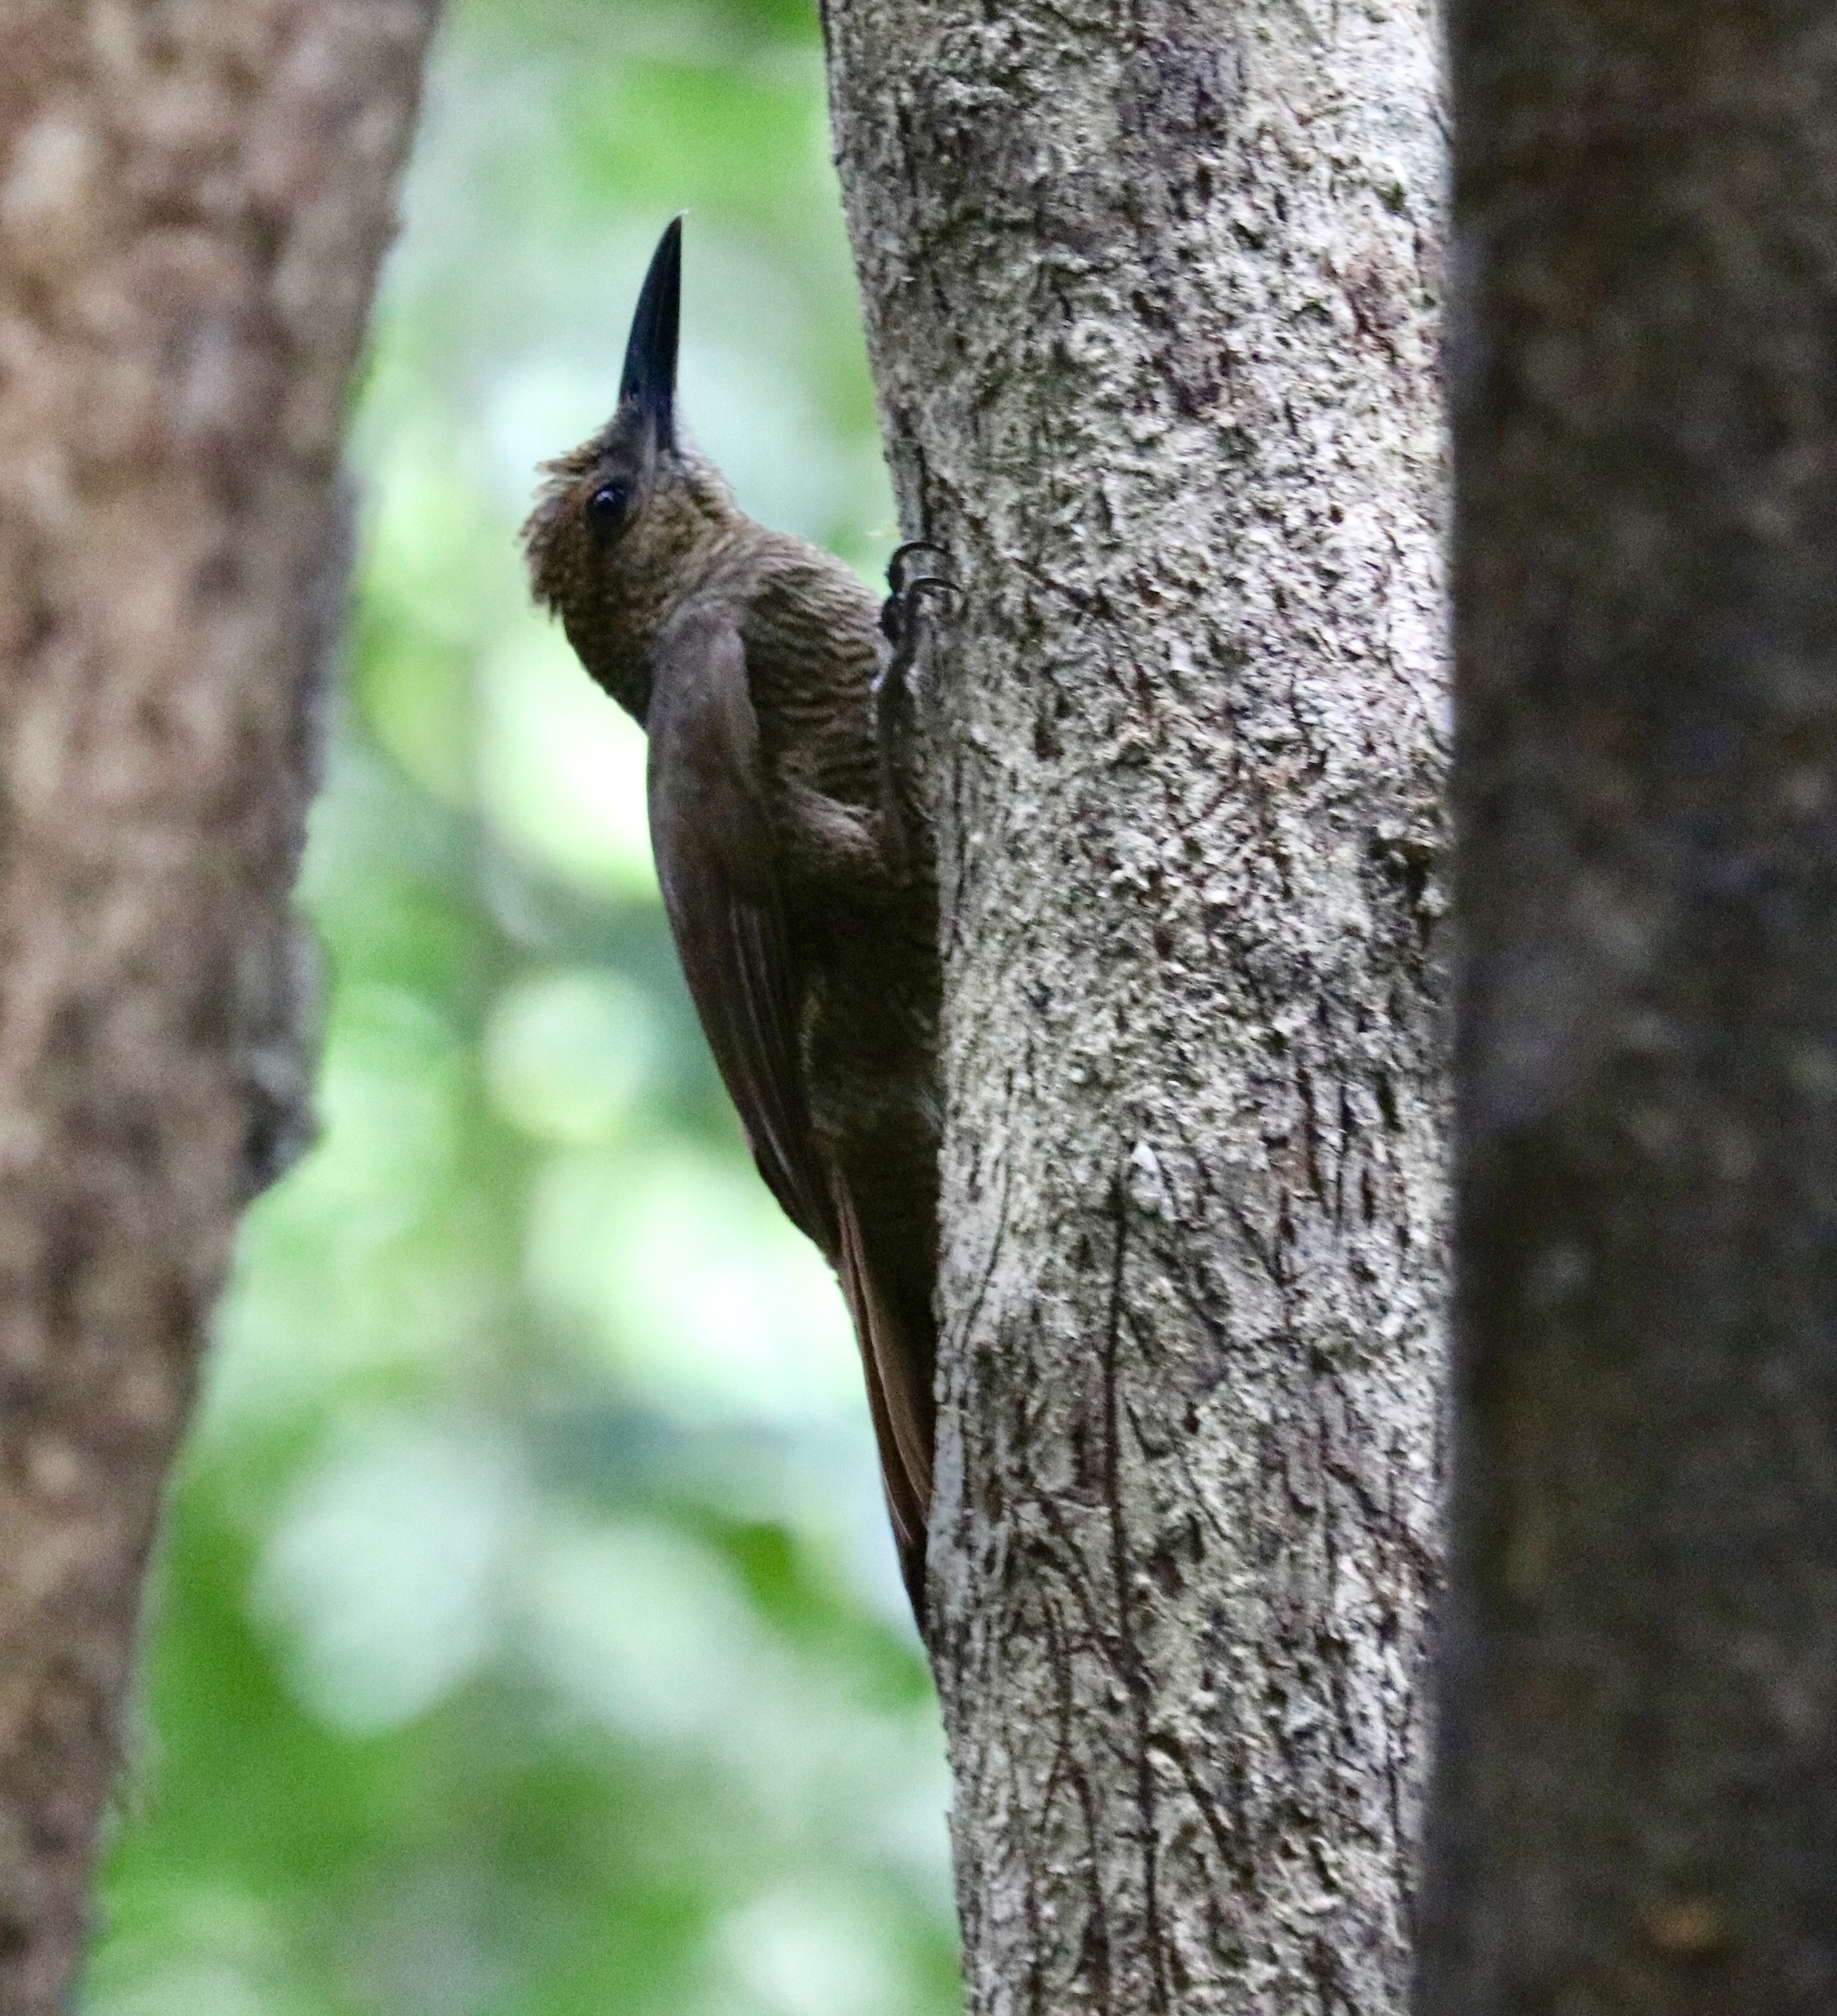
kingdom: Animalia
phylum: Chordata
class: Aves
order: Passeriformes
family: Furnariidae
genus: Dendrocolaptes
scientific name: Dendrocolaptes sanctithomae
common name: Northern barred-woodcreeper
